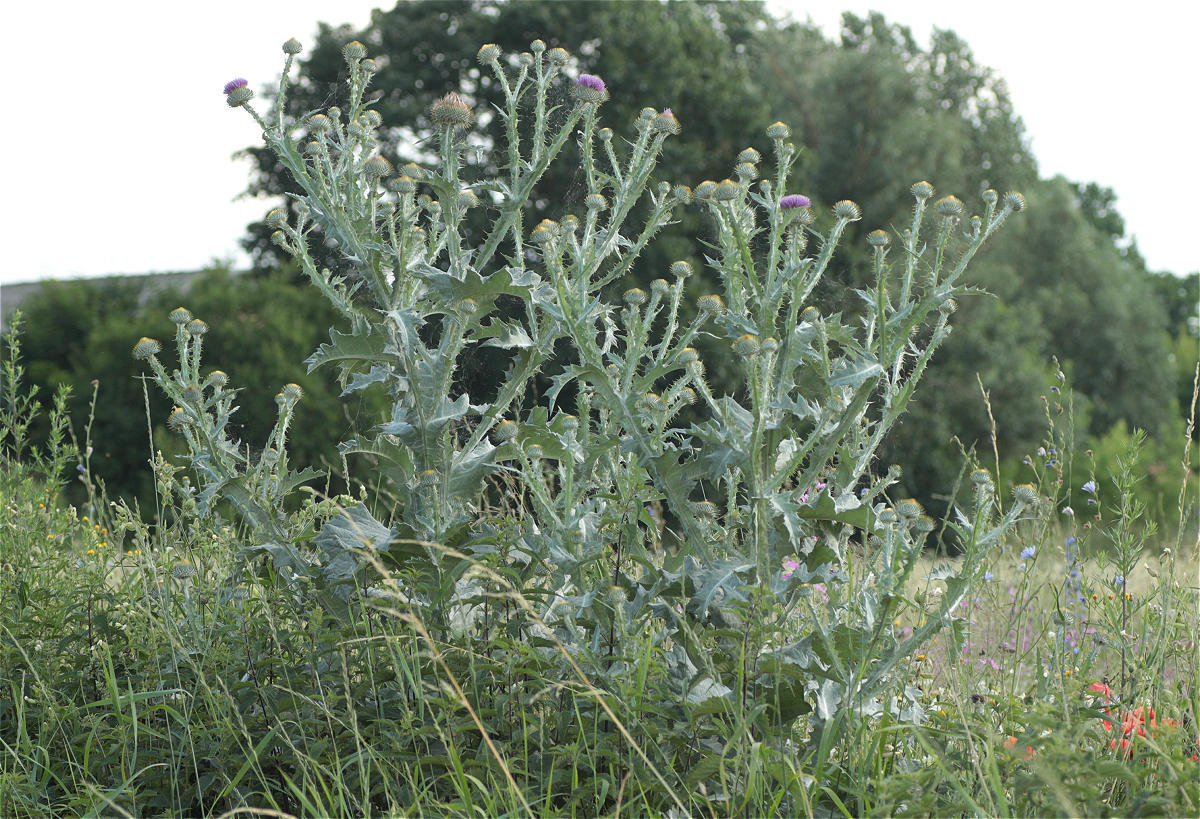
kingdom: Plantae
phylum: Tracheophyta
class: Magnoliopsida
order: Asterales
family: Asteraceae
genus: Onopordum
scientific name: Onopordum acanthium
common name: Scotch thistle
